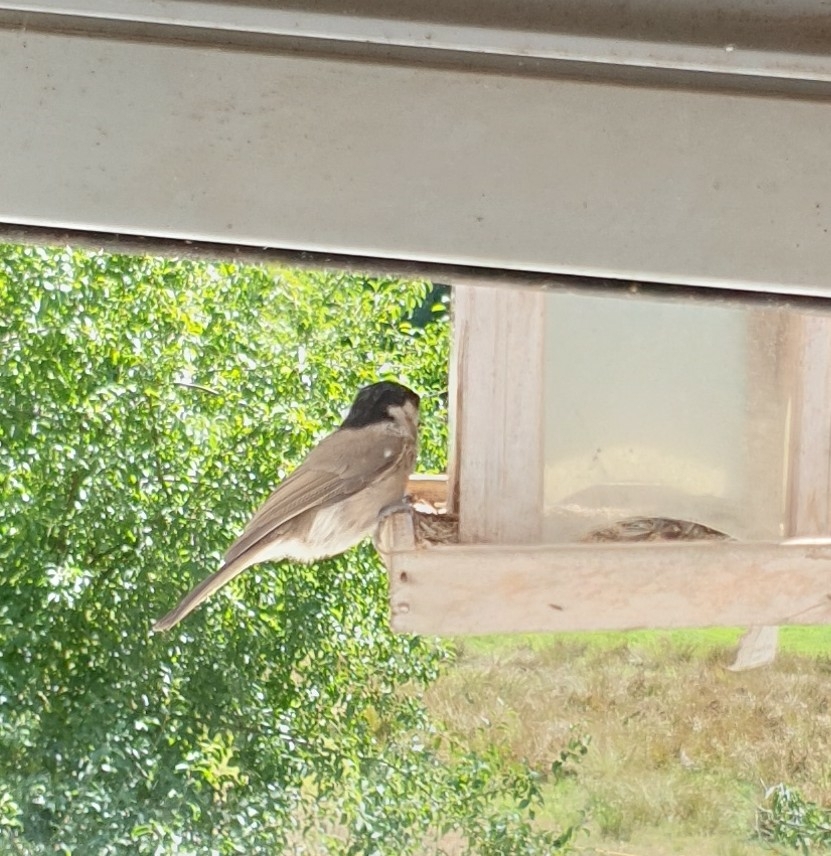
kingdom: Animalia
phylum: Chordata
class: Aves
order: Passeriformes
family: Paridae
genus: Poecile
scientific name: Poecile palustris
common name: Marsh tit
